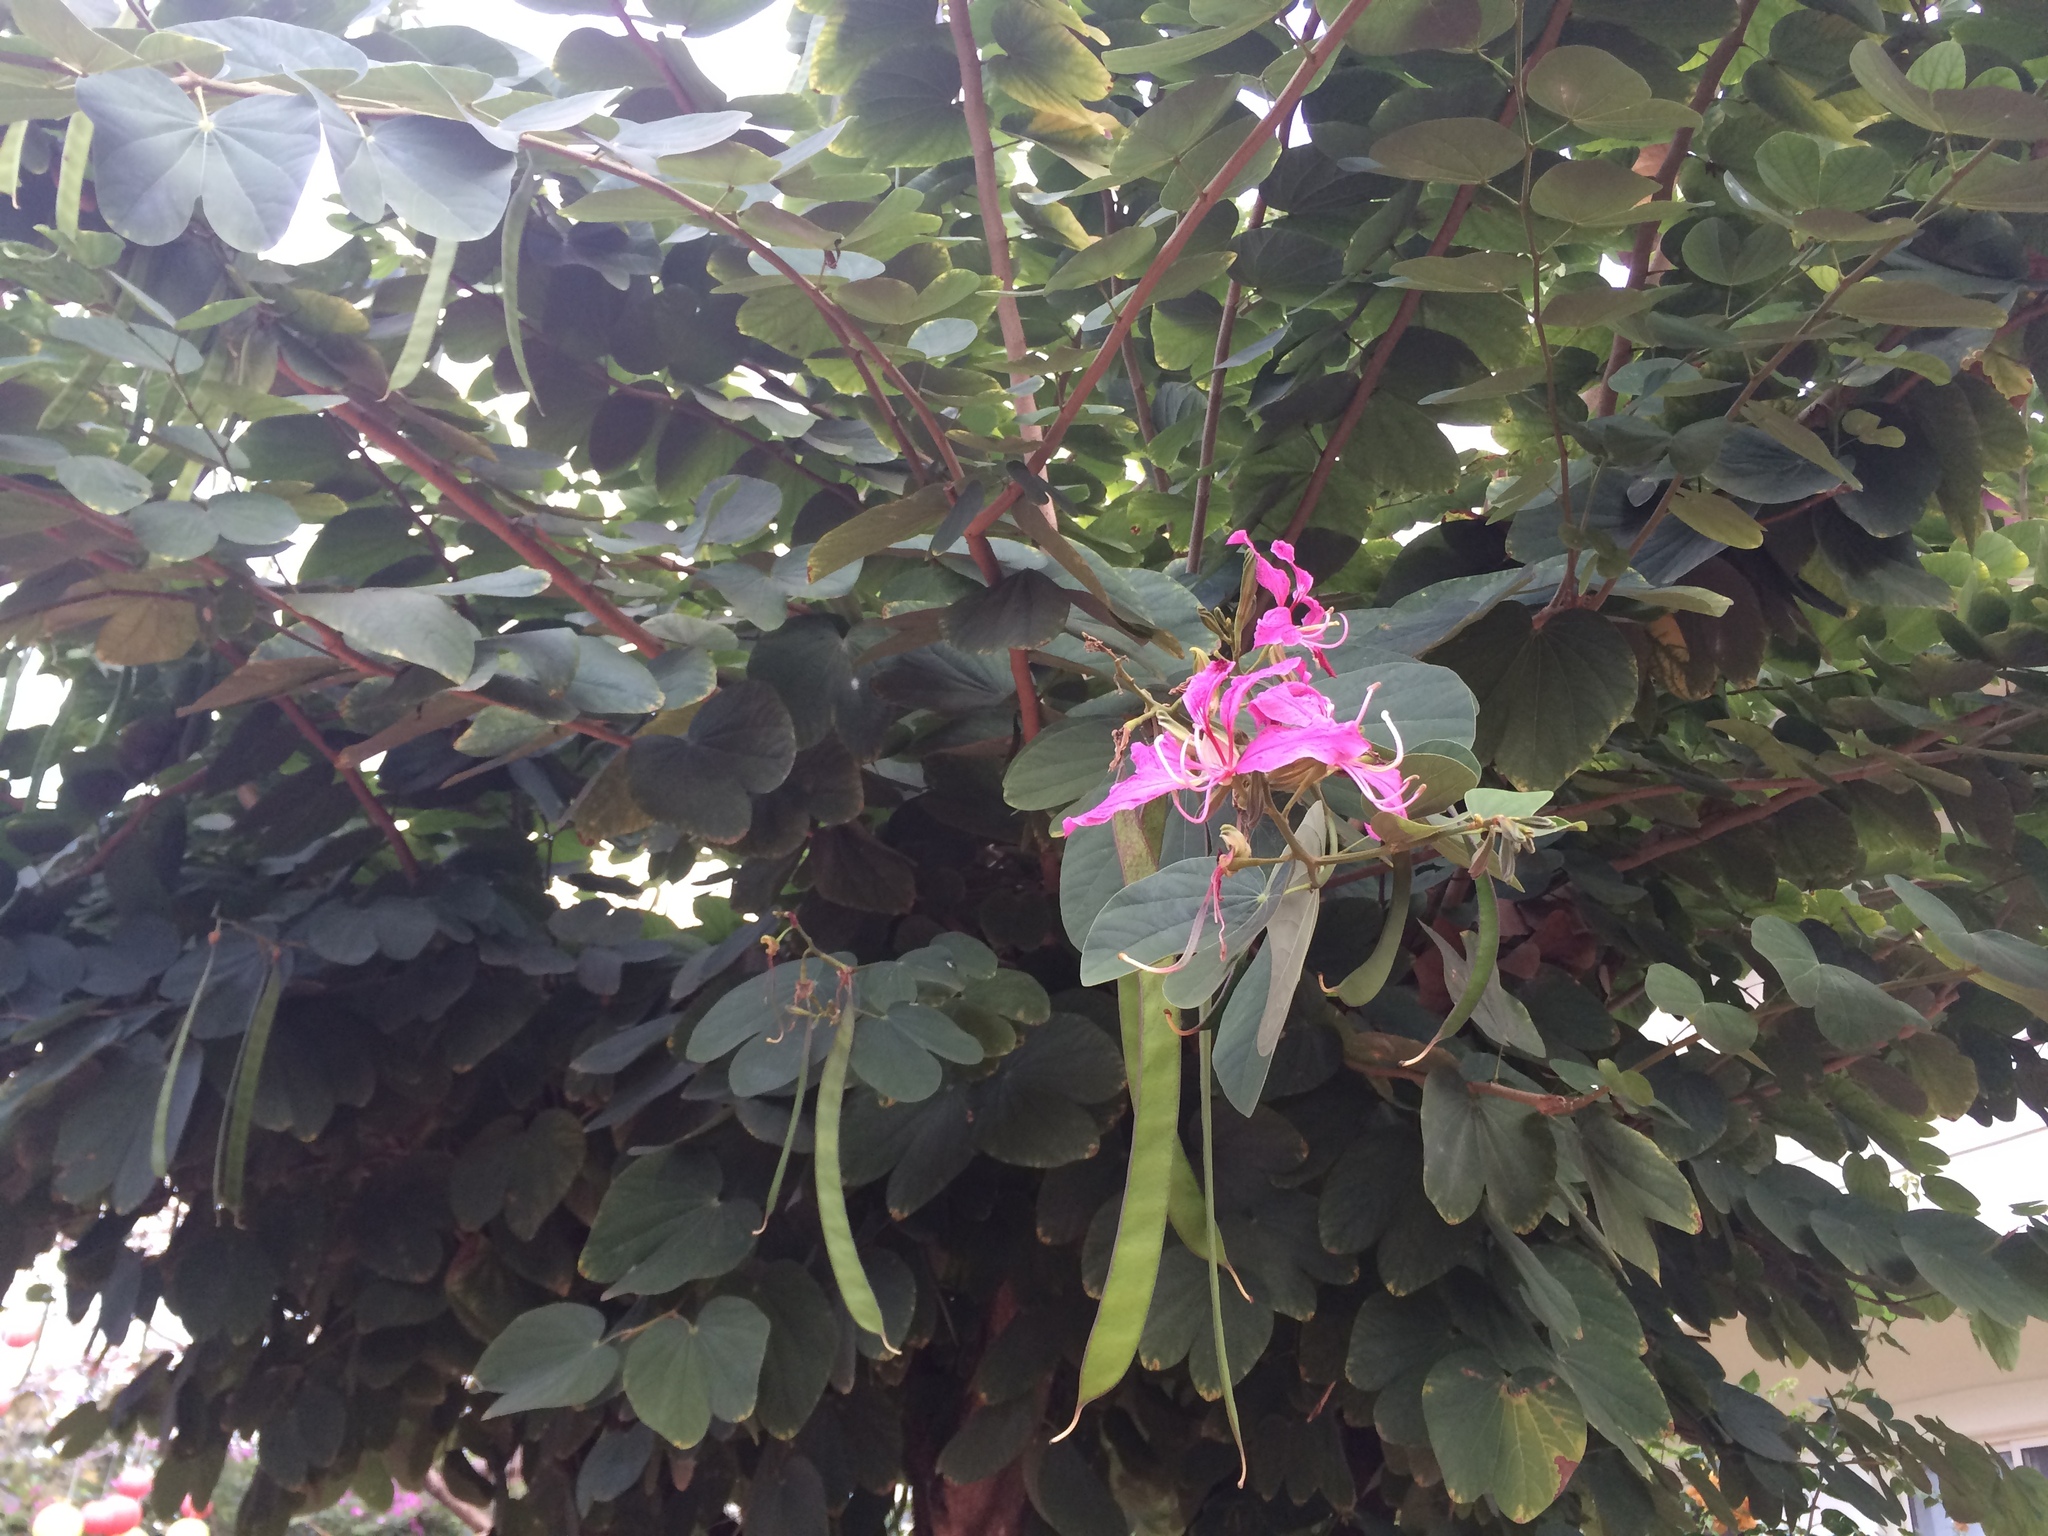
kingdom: Plantae
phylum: Tracheophyta
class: Magnoliopsida
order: Fabales
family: Fabaceae
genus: Bauhinia
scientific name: Bauhinia variegata
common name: Mountain ebony
